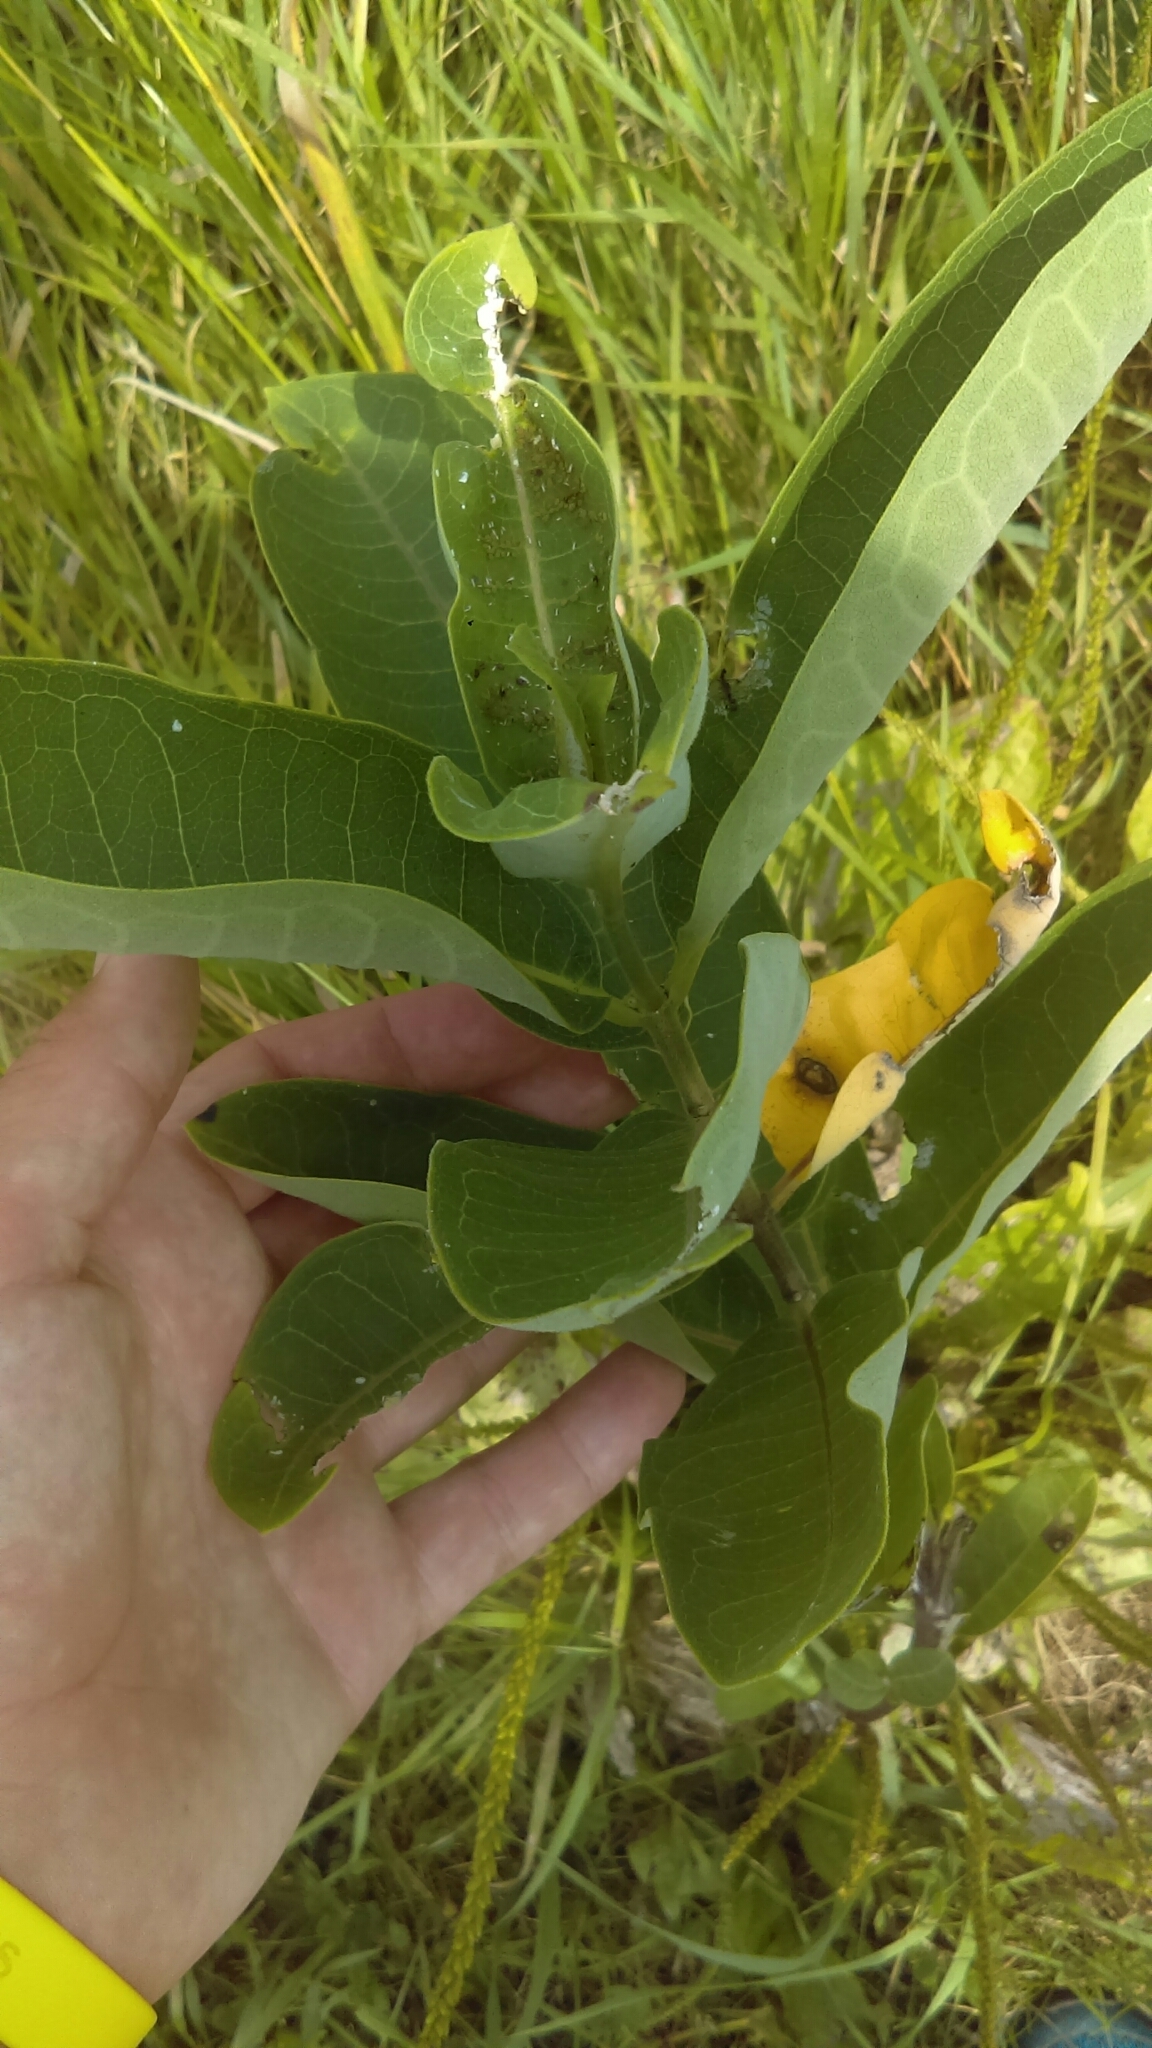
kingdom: Plantae
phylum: Tracheophyta
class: Magnoliopsida
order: Gentianales
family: Apocynaceae
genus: Asclepias
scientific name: Asclepias syriaca
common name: Common milkweed
